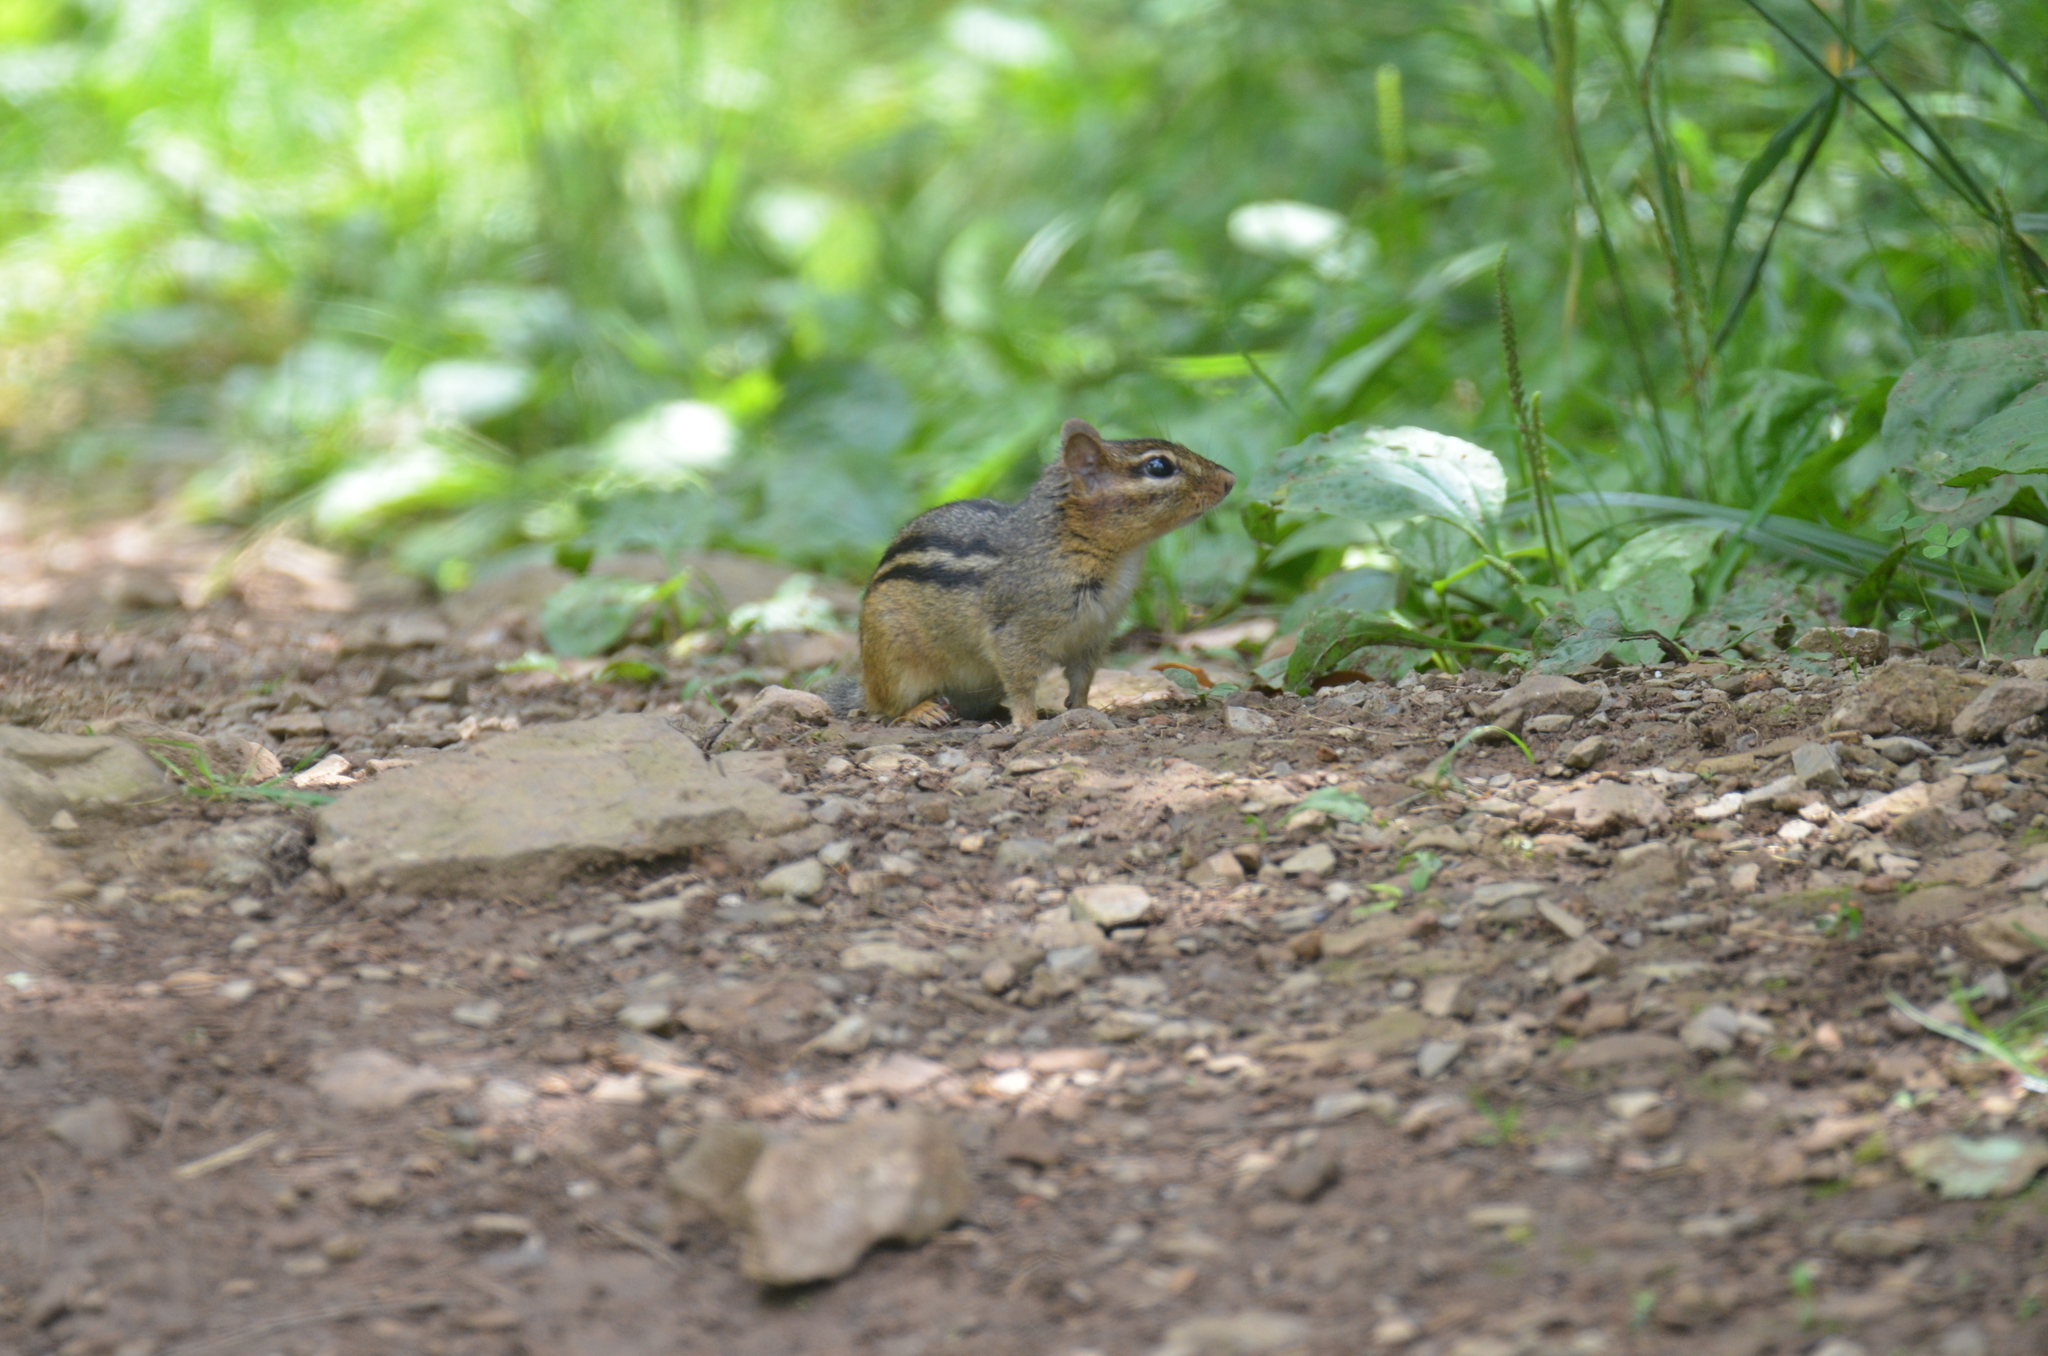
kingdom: Animalia
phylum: Chordata
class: Mammalia
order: Rodentia
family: Sciuridae
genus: Tamias
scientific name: Tamias striatus
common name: Eastern chipmunk
